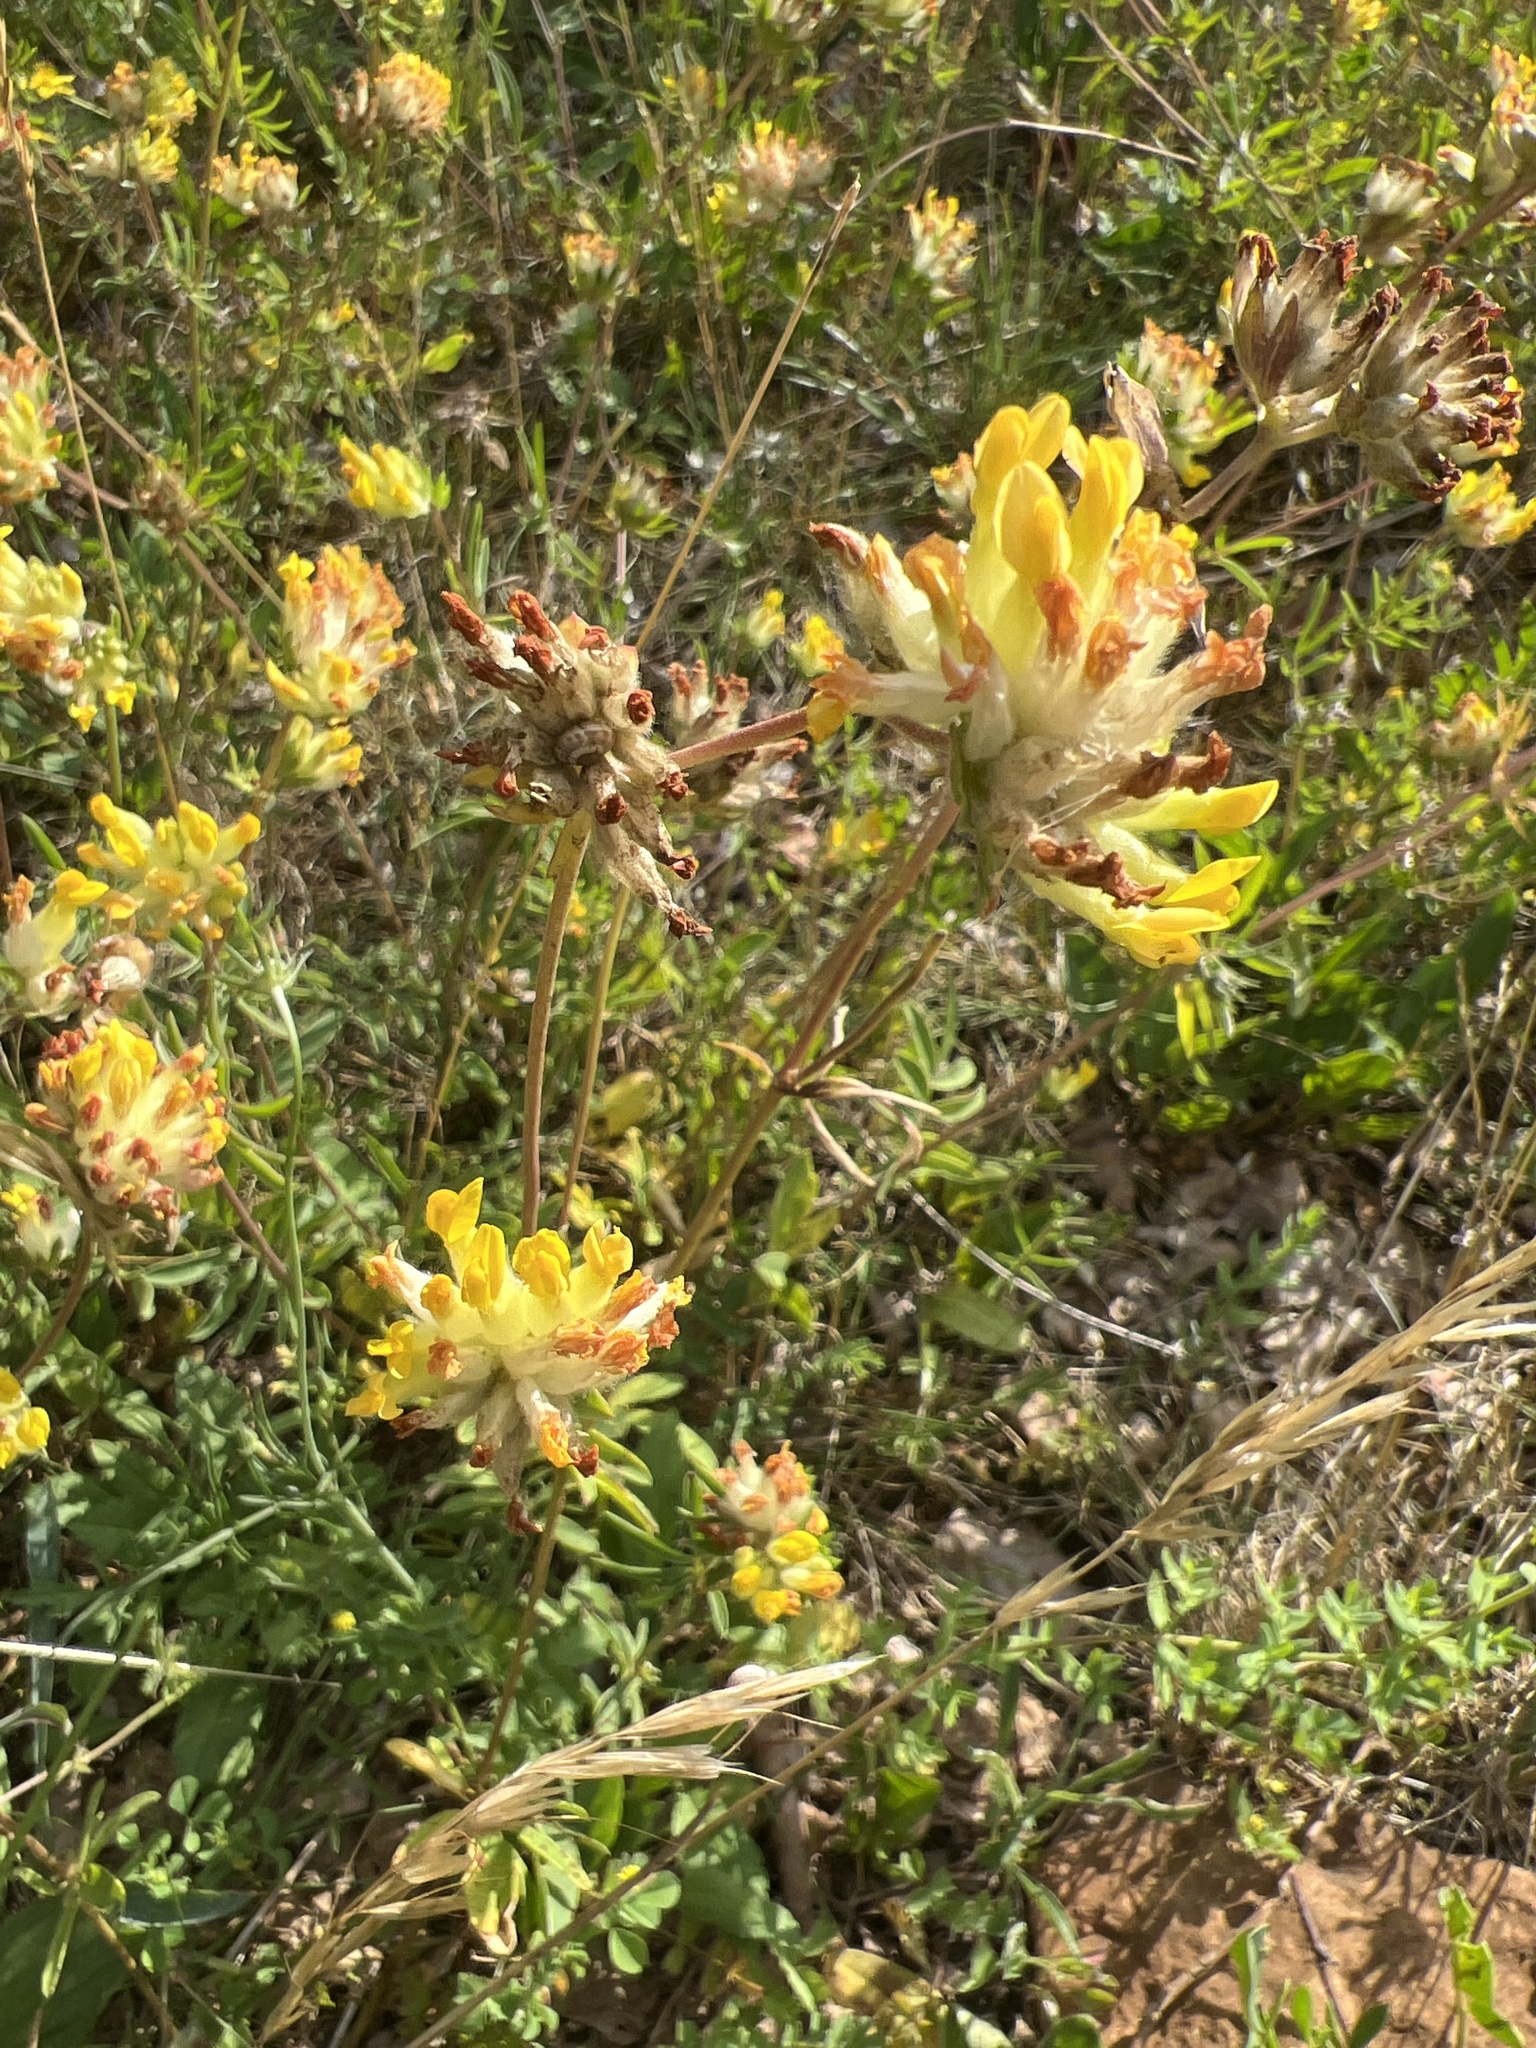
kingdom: Plantae
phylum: Tracheophyta
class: Magnoliopsida
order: Fabales
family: Fabaceae
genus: Anthyllis
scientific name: Anthyllis vulneraria
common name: Kidney vetch
